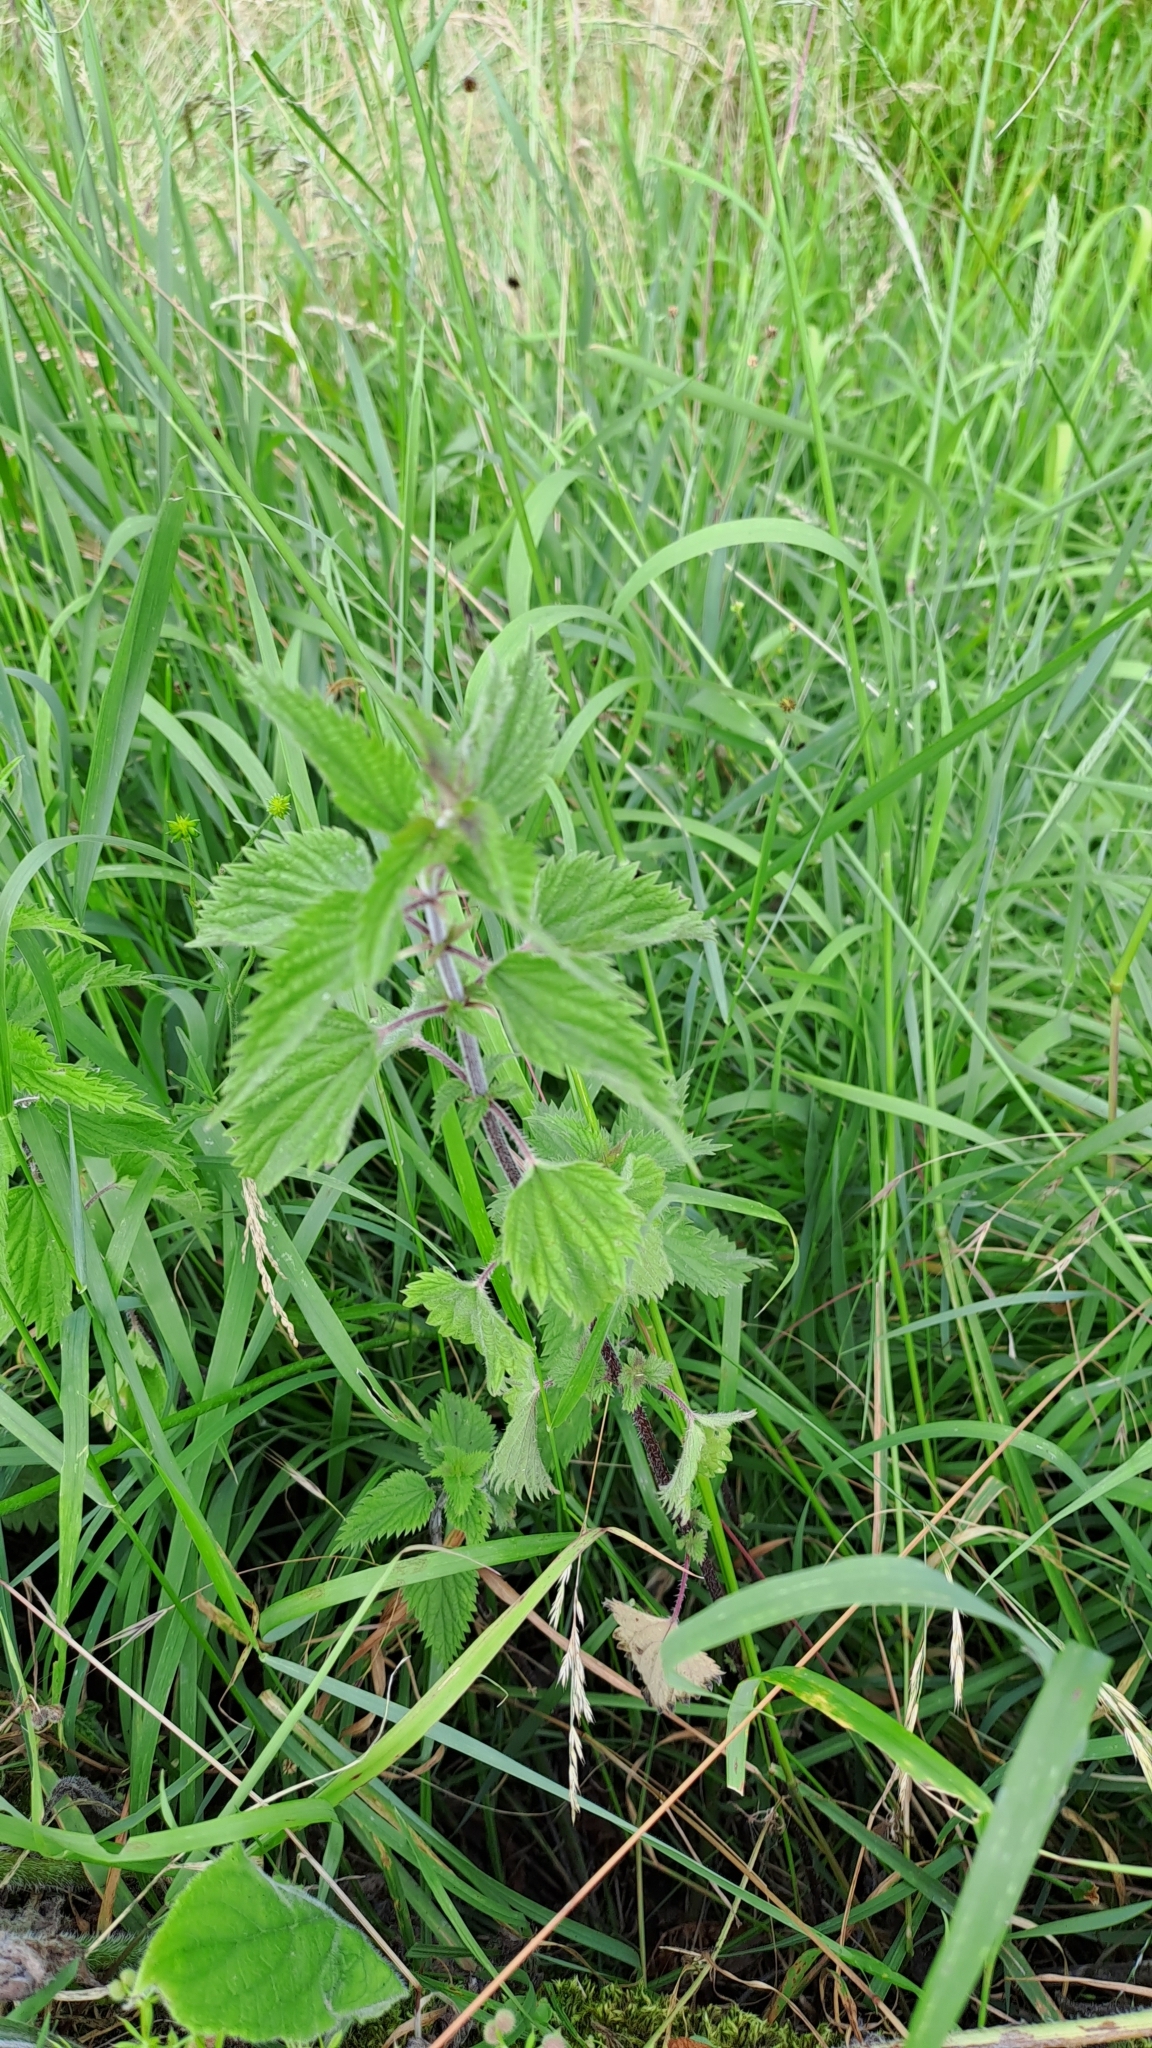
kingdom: Plantae
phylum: Tracheophyta
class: Magnoliopsida
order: Rosales
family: Urticaceae
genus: Urtica
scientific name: Urtica dioica
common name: Common nettle
